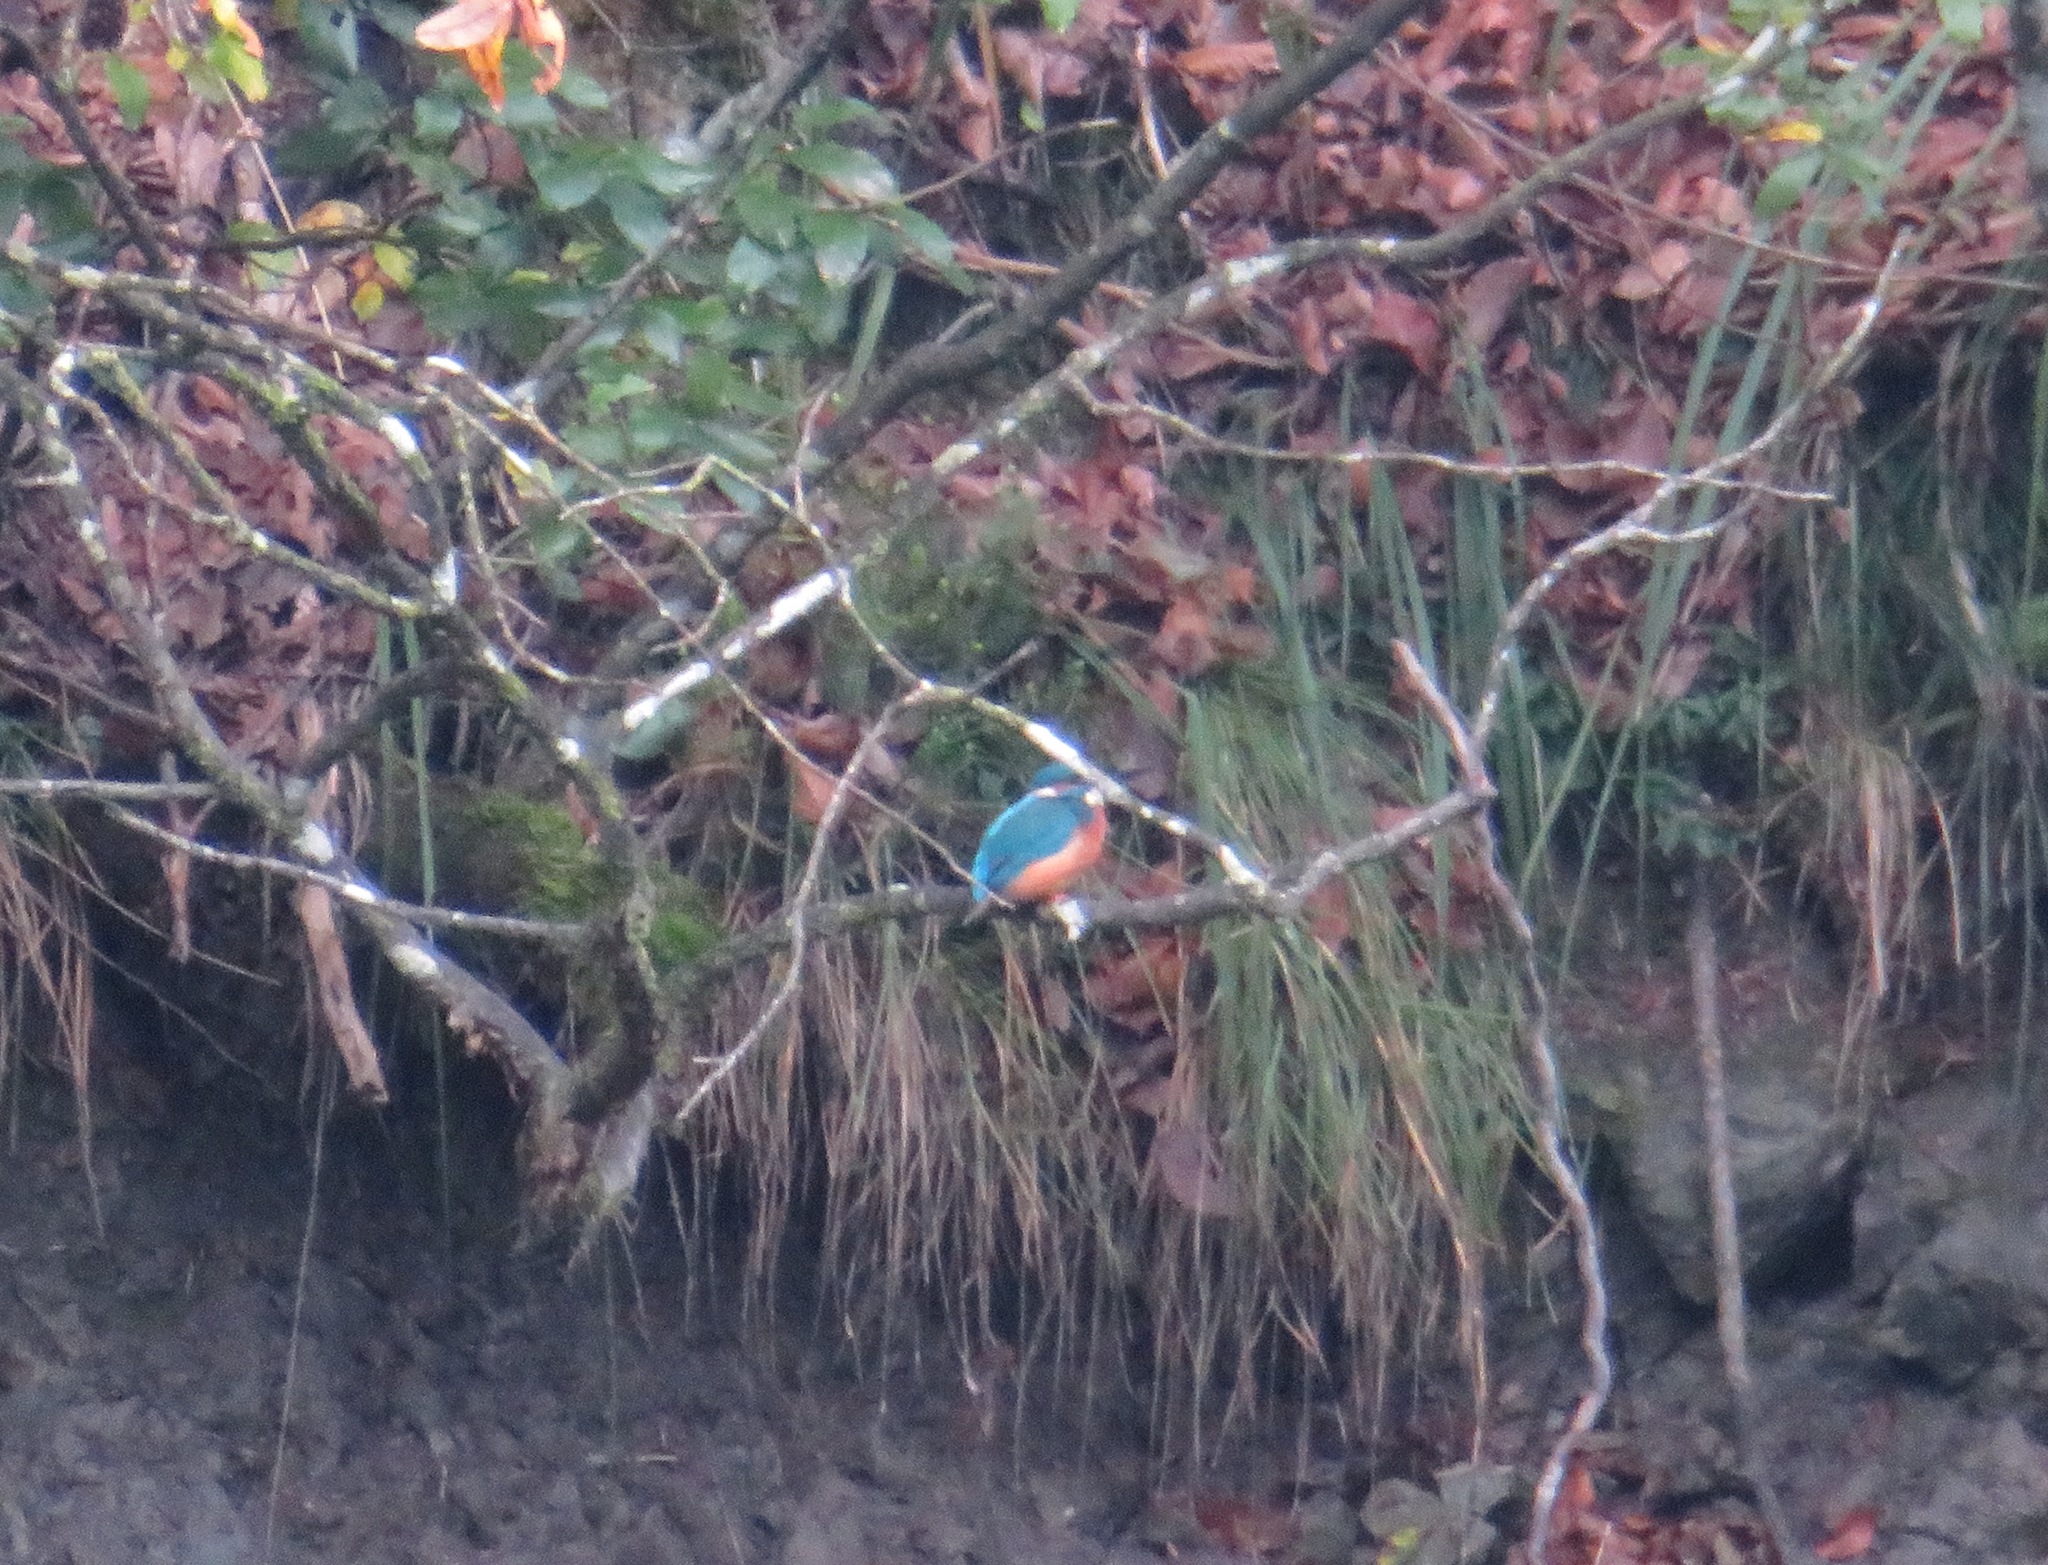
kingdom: Animalia
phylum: Chordata
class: Aves
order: Coraciiformes
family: Alcedinidae
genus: Alcedo
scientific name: Alcedo atthis
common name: Common kingfisher
